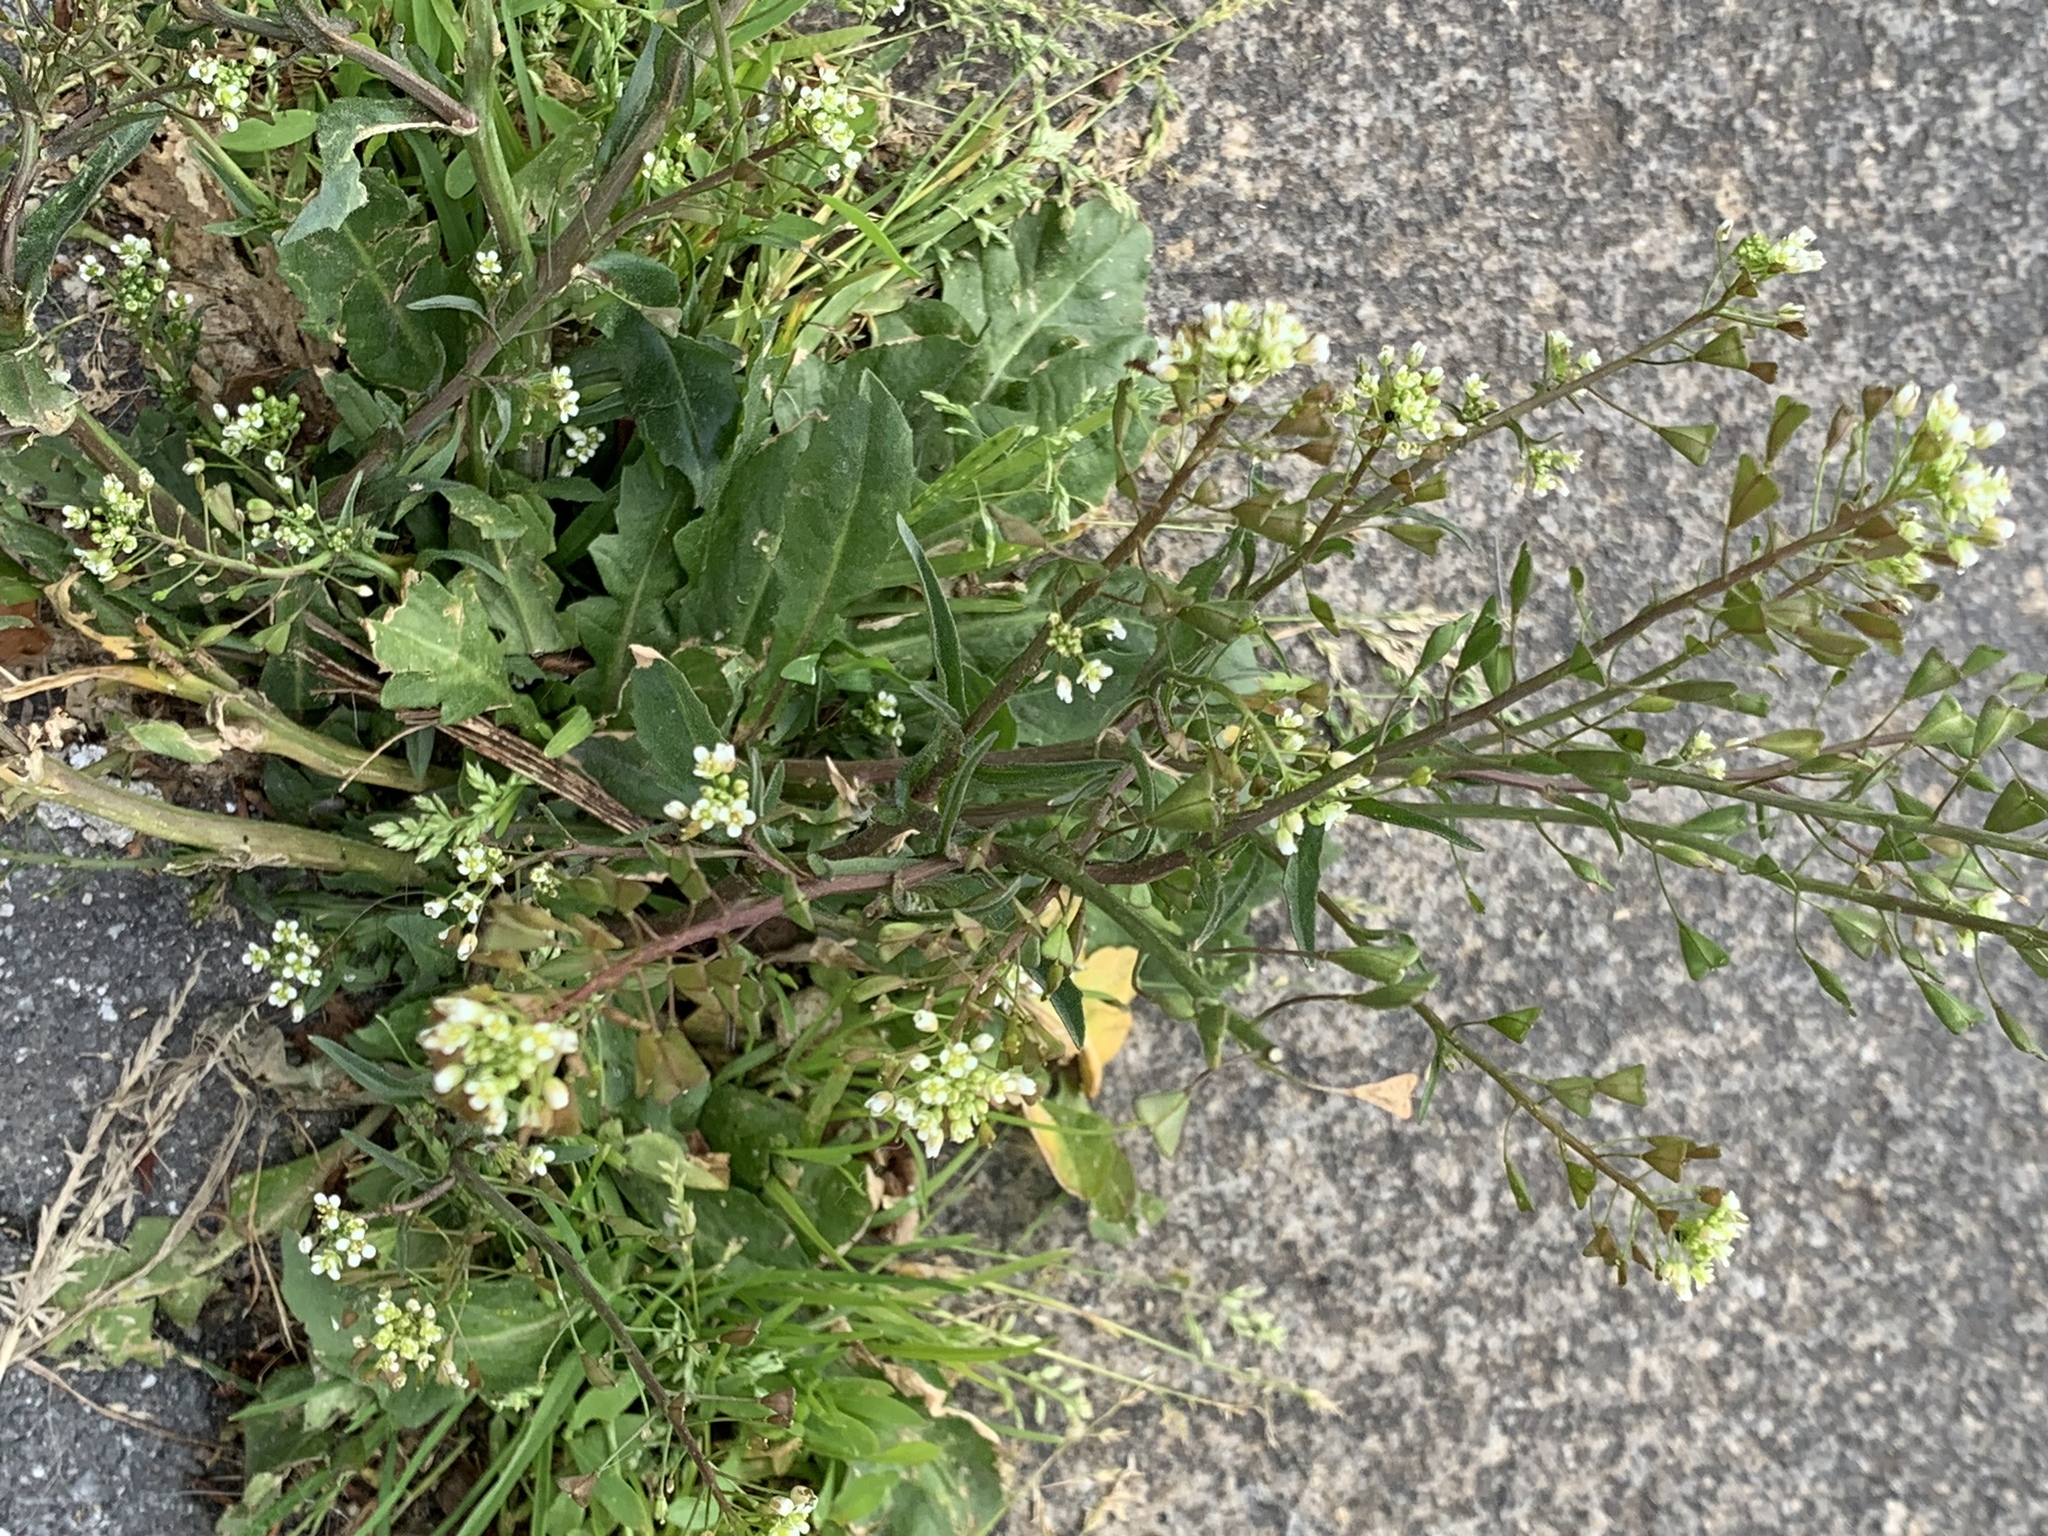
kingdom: Plantae
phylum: Tracheophyta
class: Magnoliopsida
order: Brassicales
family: Brassicaceae
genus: Capsella
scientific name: Capsella bursa-pastoris
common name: Shepherd's purse
